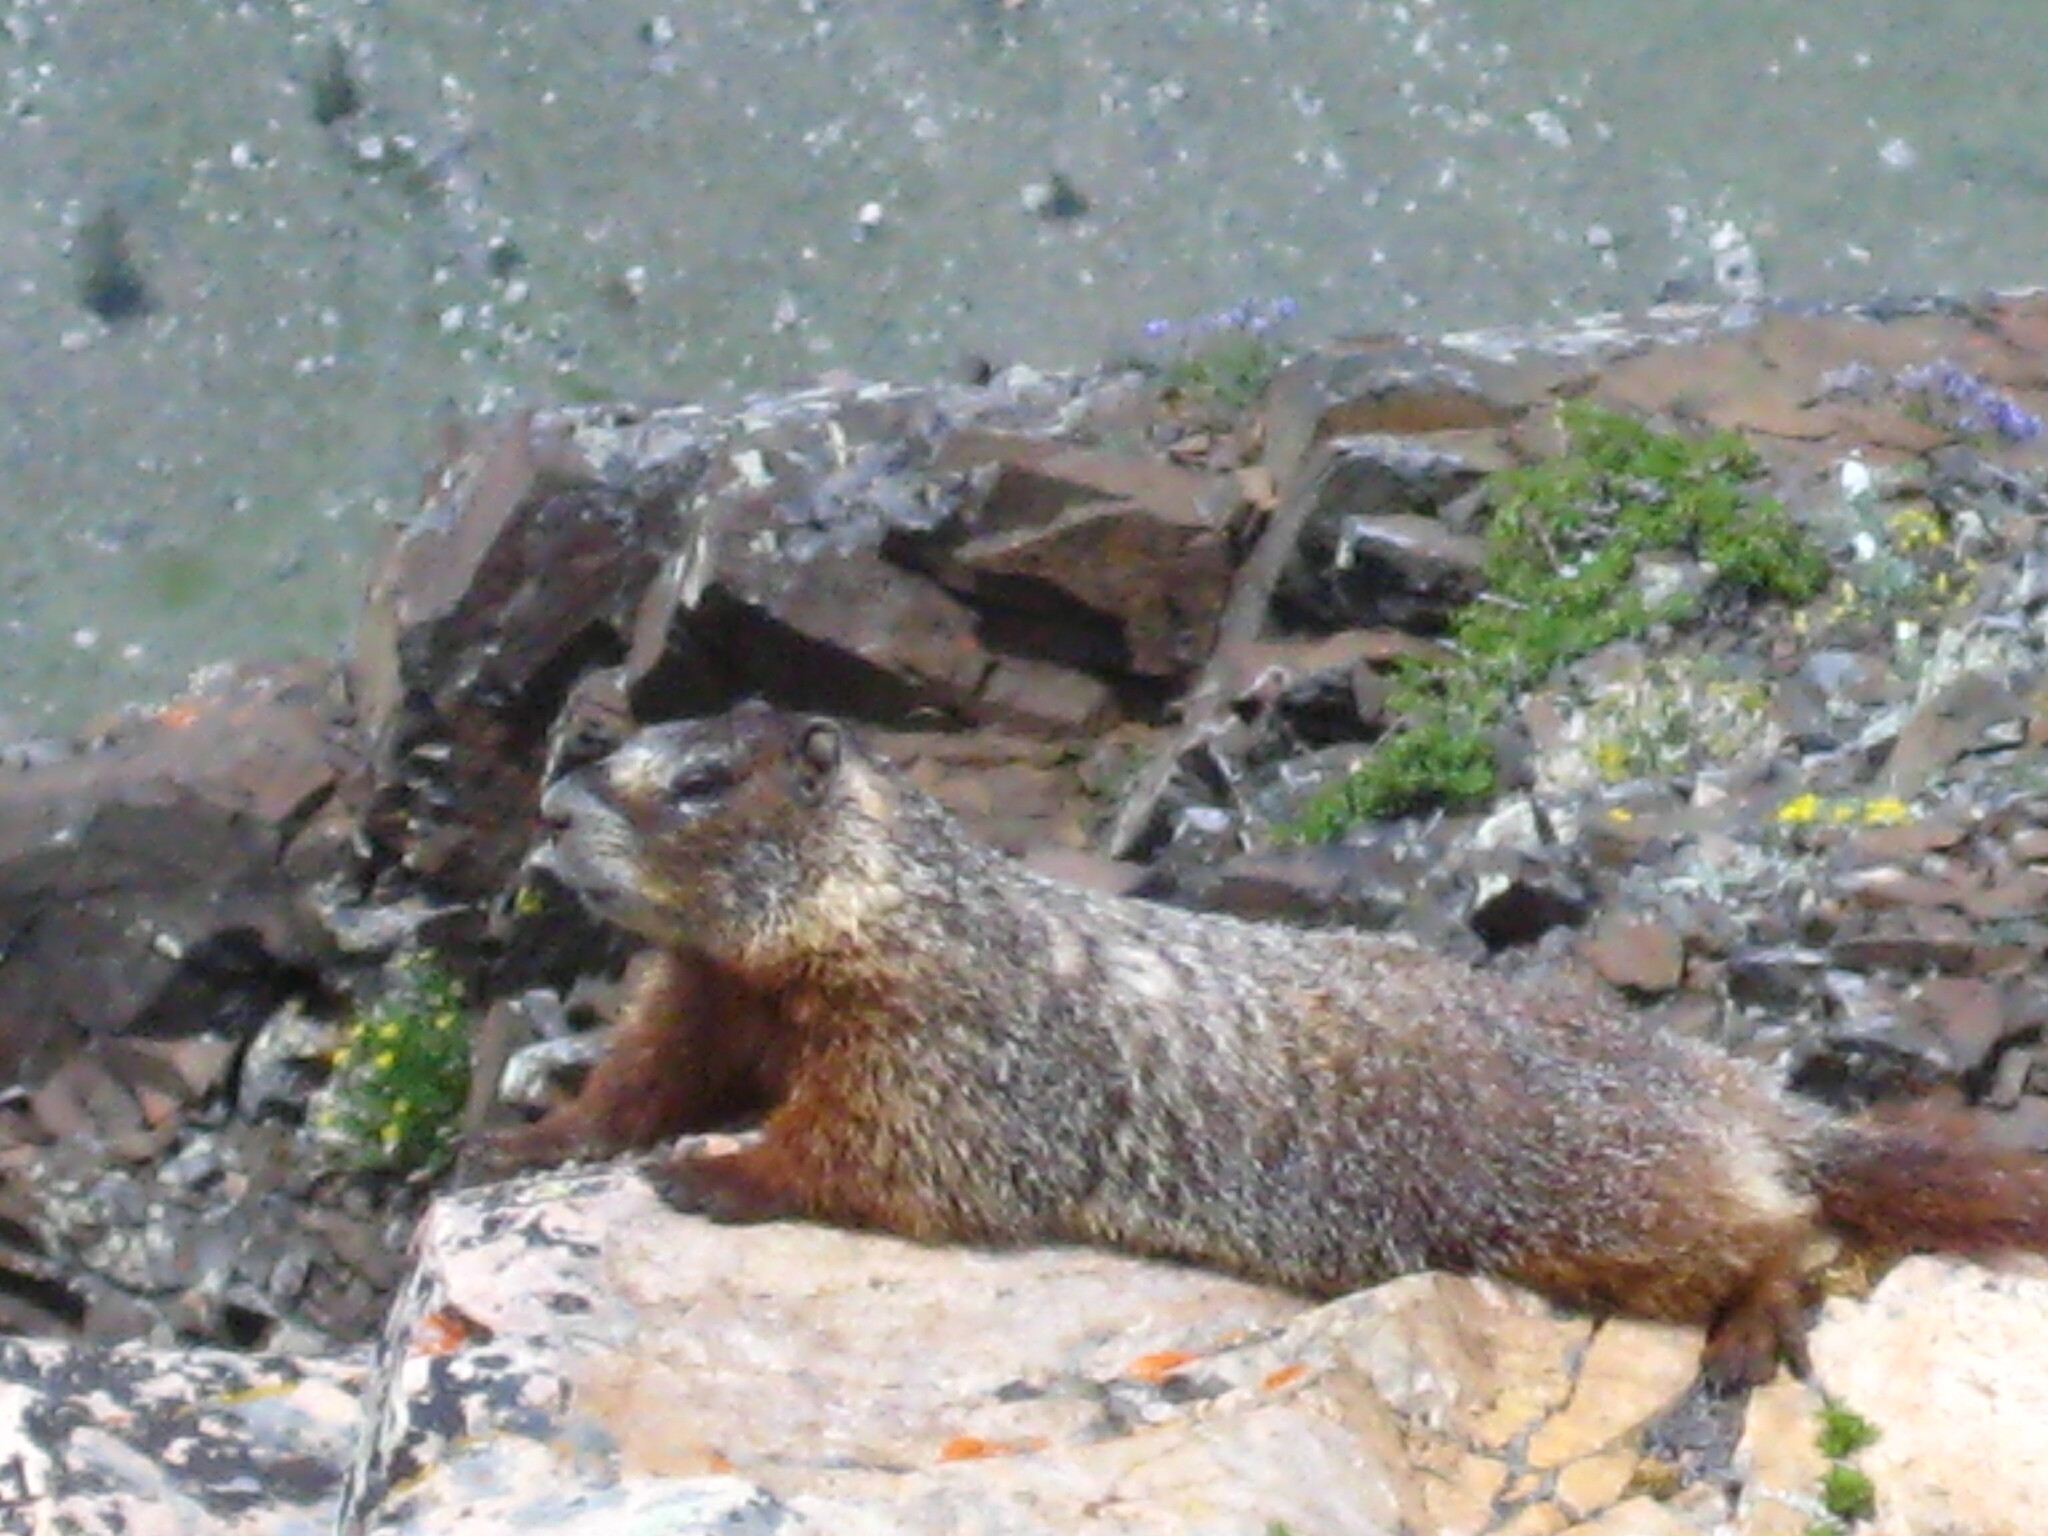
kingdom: Animalia
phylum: Chordata
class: Mammalia
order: Rodentia
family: Sciuridae
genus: Marmota
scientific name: Marmota flaviventris
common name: Yellow-bellied marmot
